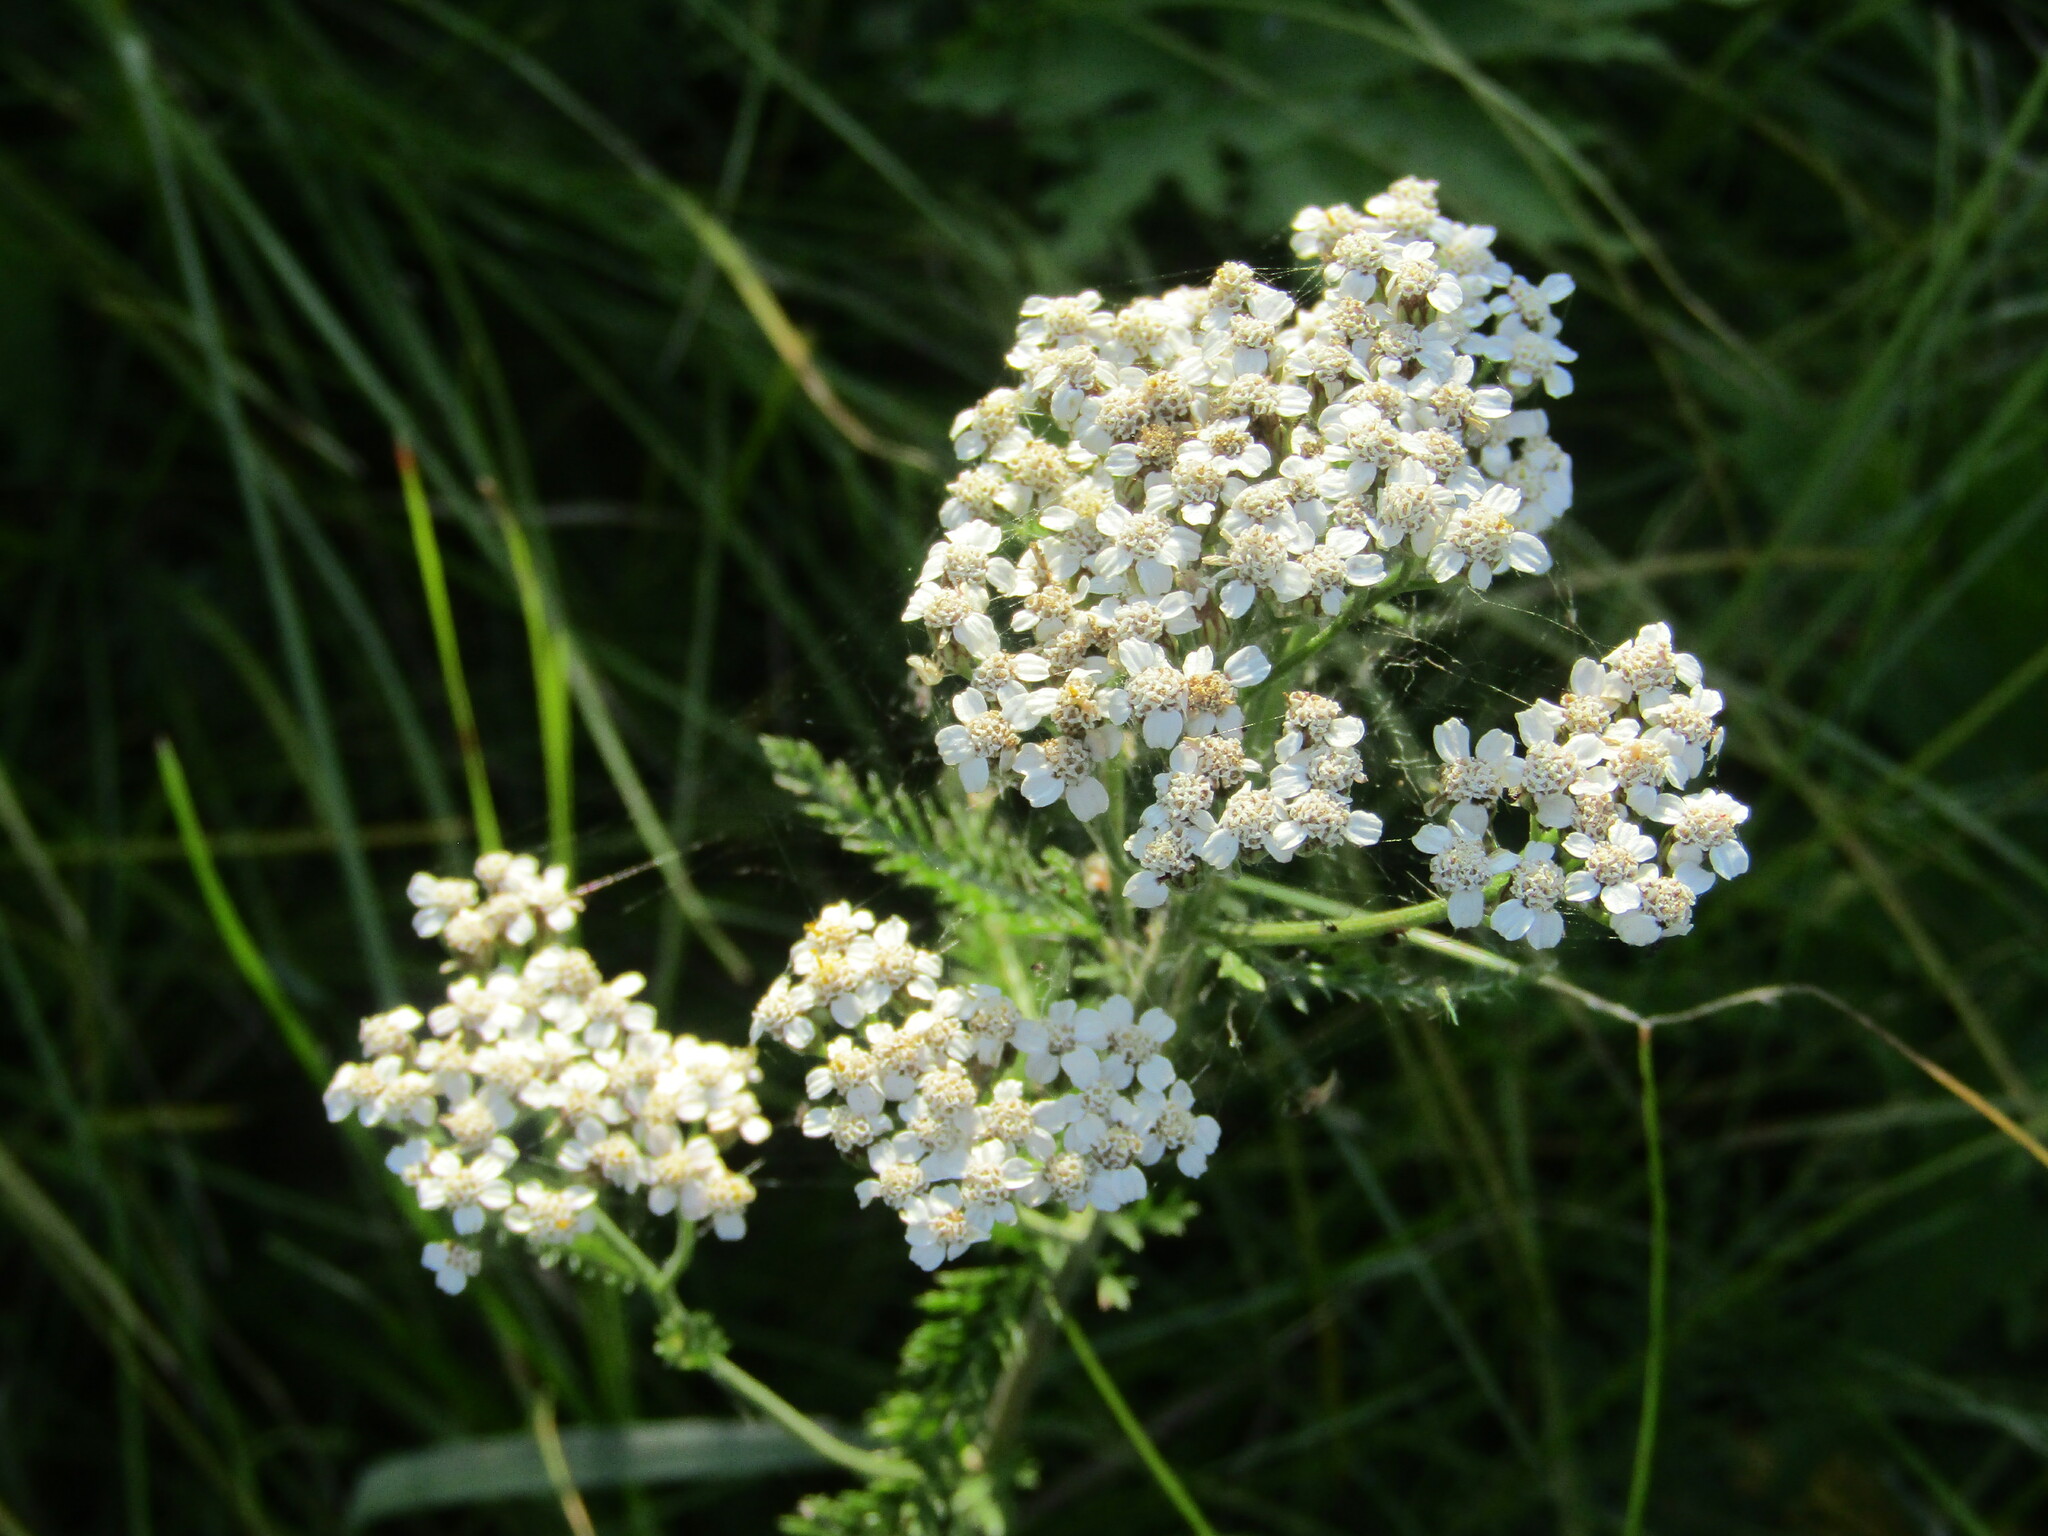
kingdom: Plantae
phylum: Tracheophyta
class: Magnoliopsida
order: Asterales
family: Asteraceae
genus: Achillea
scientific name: Achillea millefolium
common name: Yarrow
